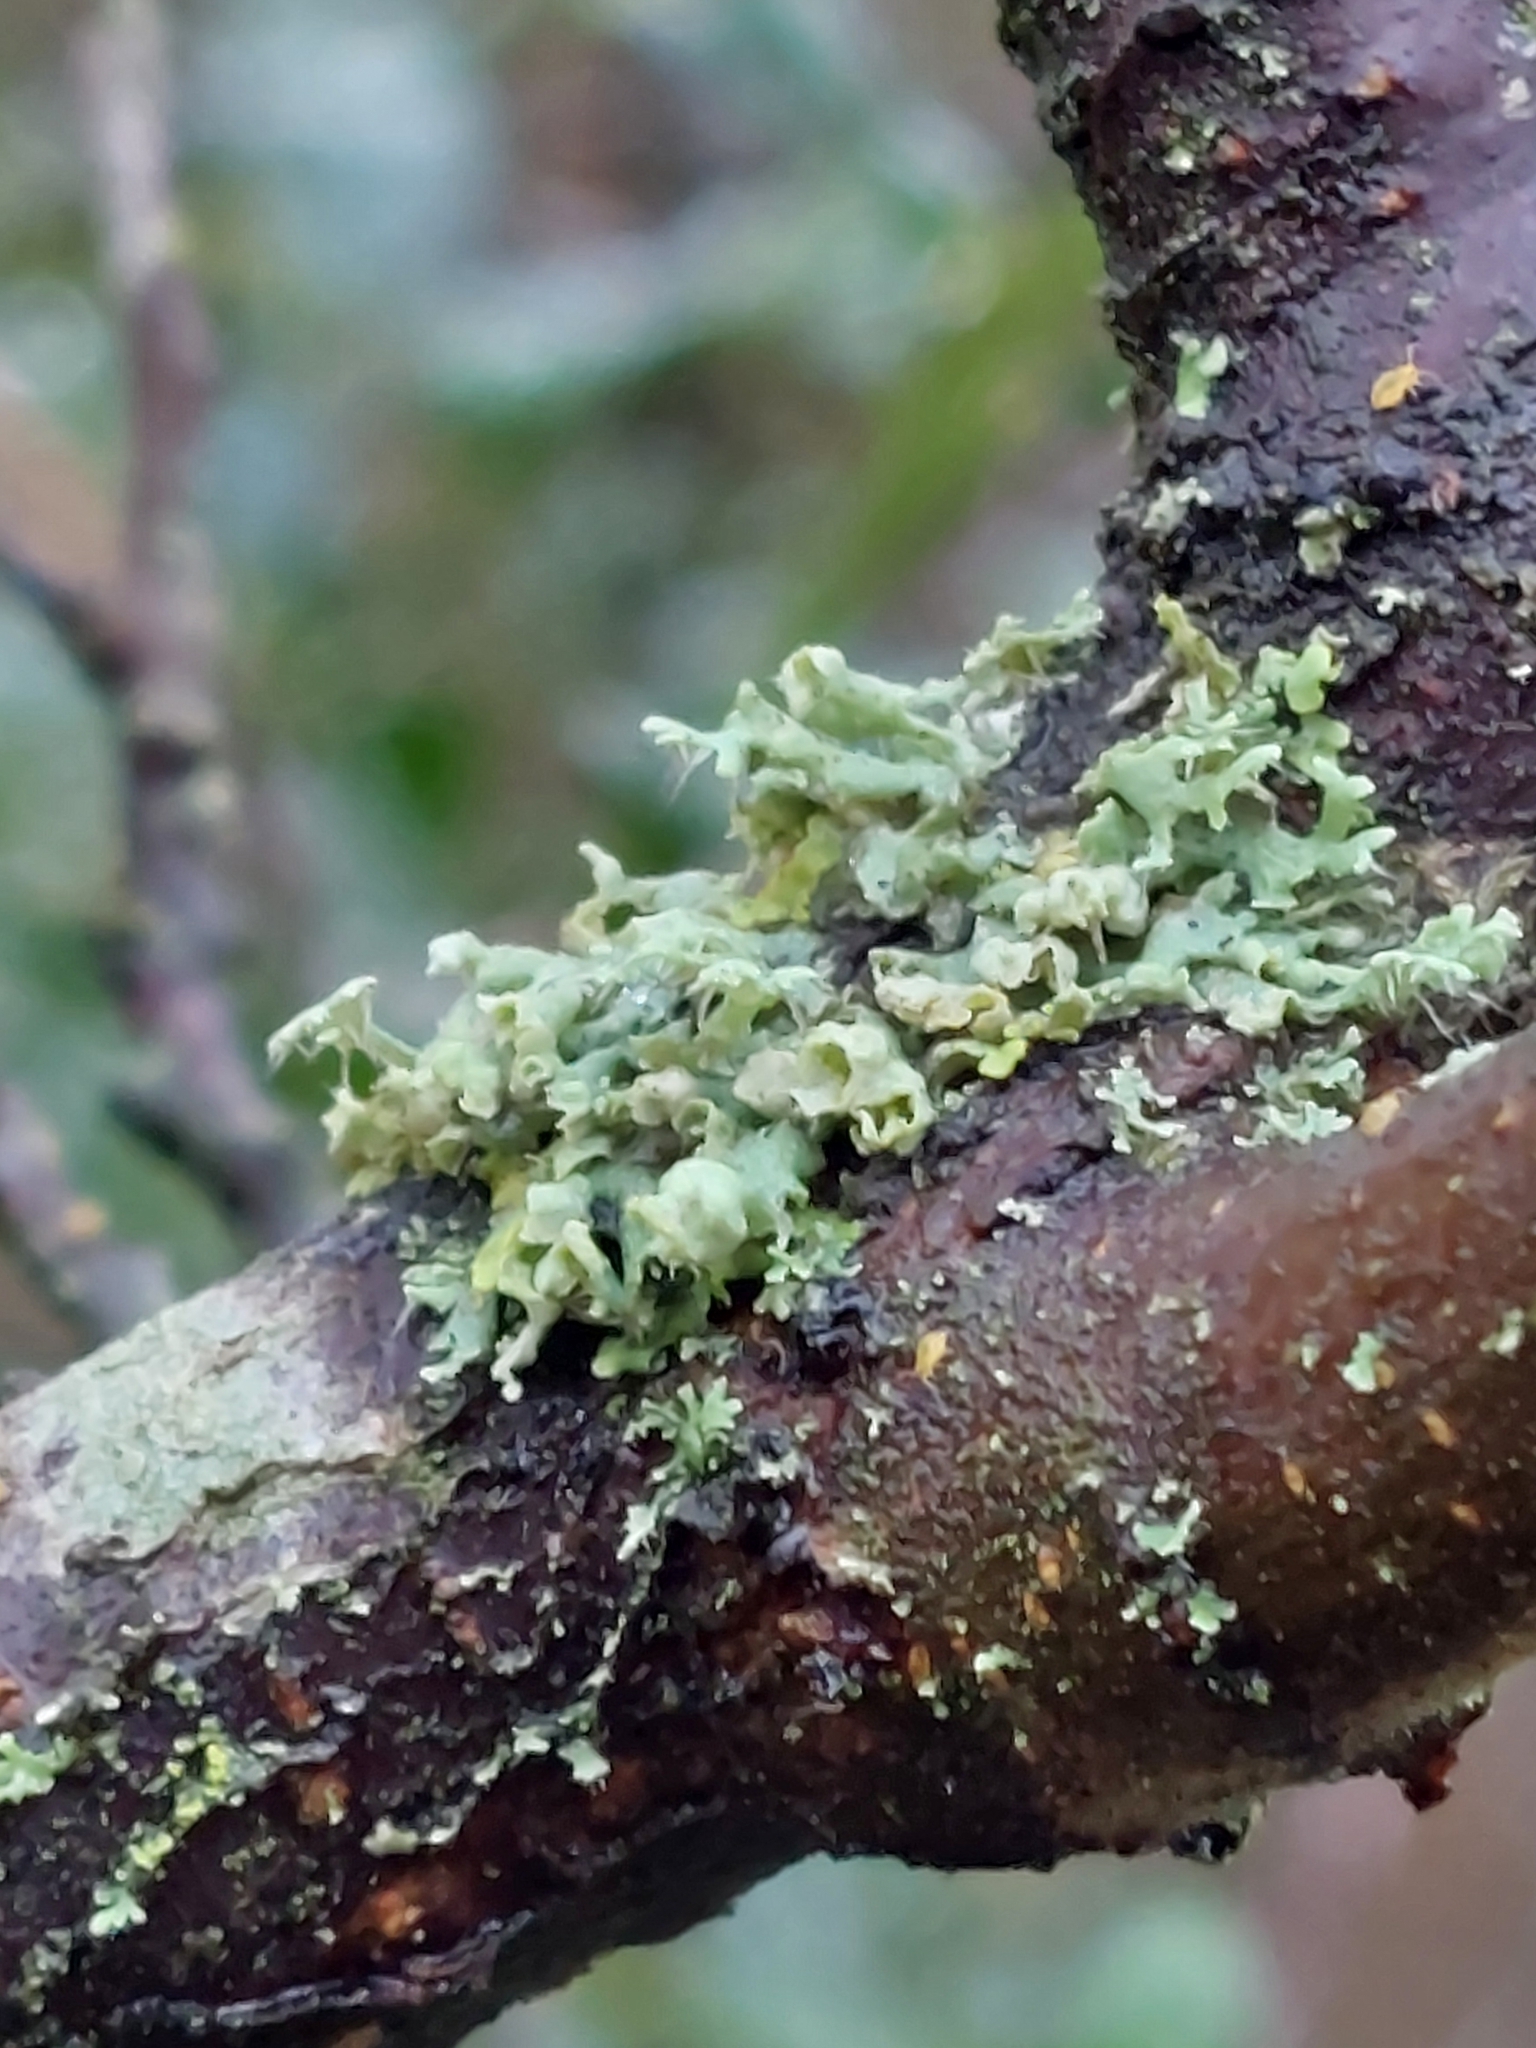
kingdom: Fungi
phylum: Ascomycota
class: Lecanoromycetes
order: Caliciales
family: Physciaceae
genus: Physcia
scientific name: Physcia adscendens
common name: Hooded rosette lichen
